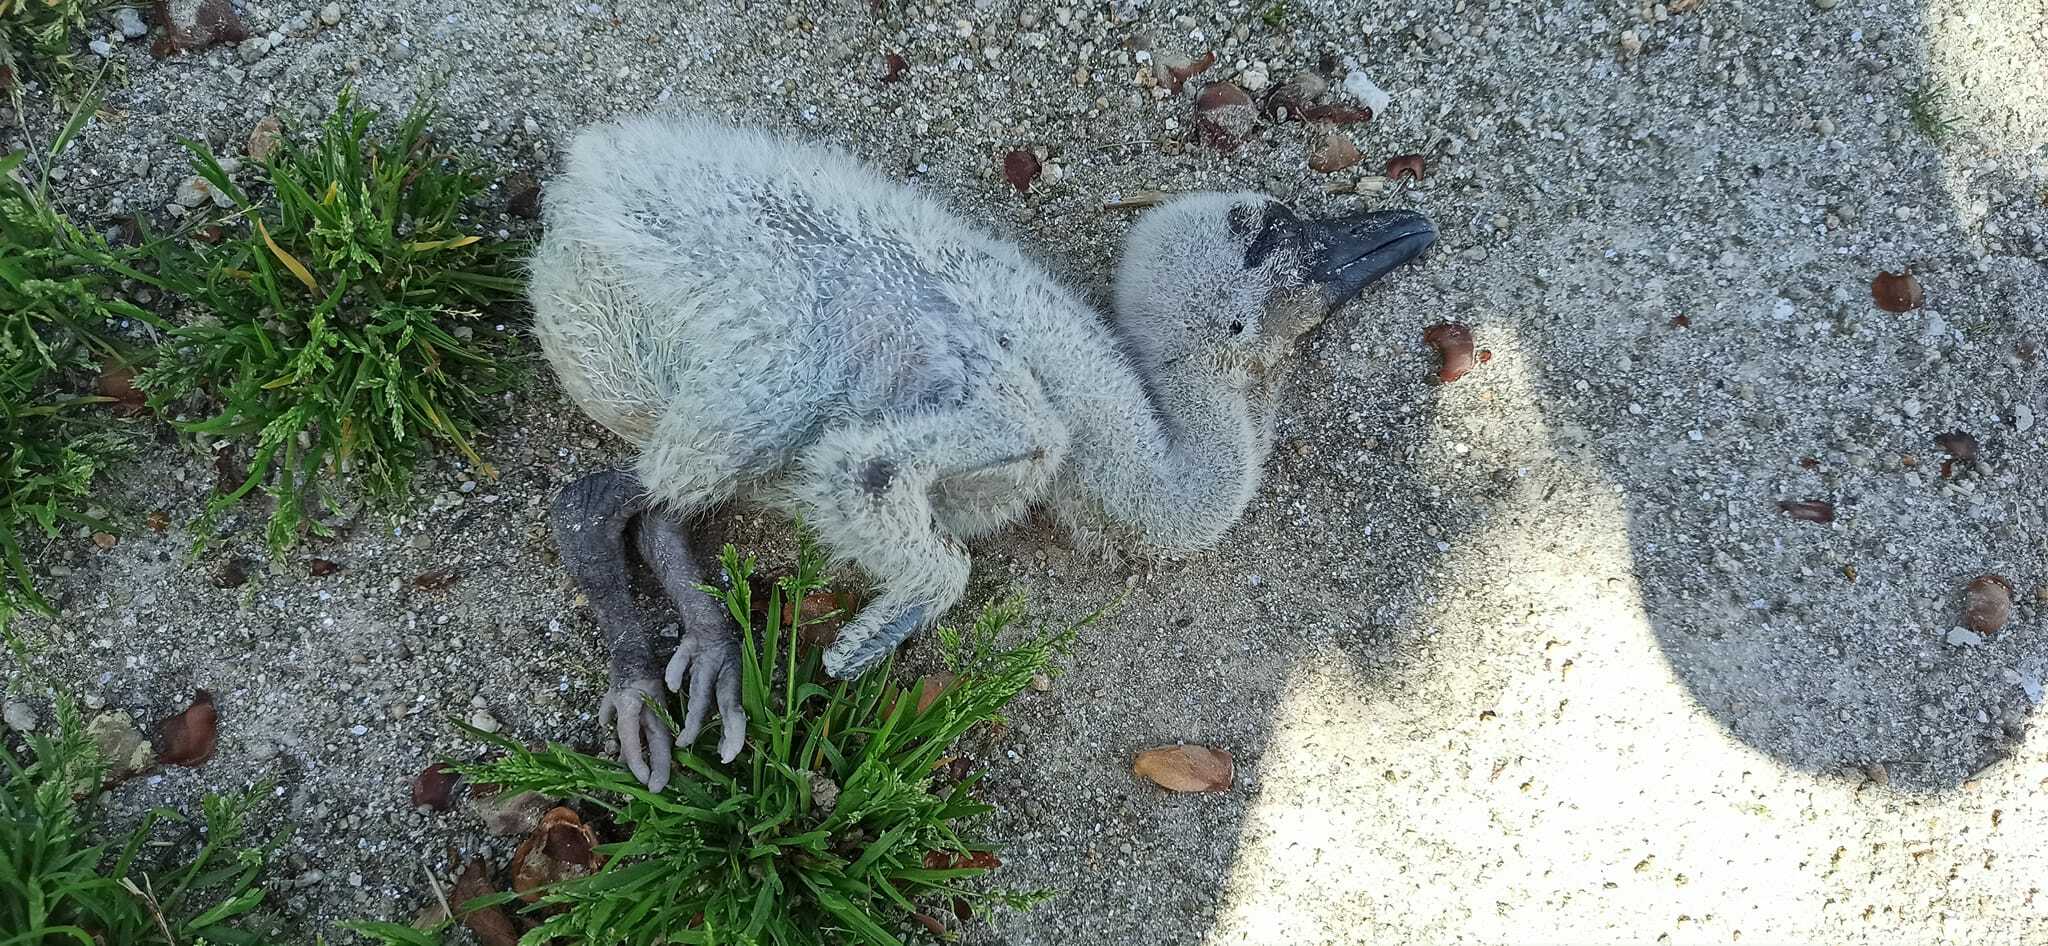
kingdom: Animalia
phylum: Chordata
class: Aves
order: Ciconiiformes
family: Ciconiidae
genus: Ciconia
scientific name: Ciconia ciconia
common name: White stork
